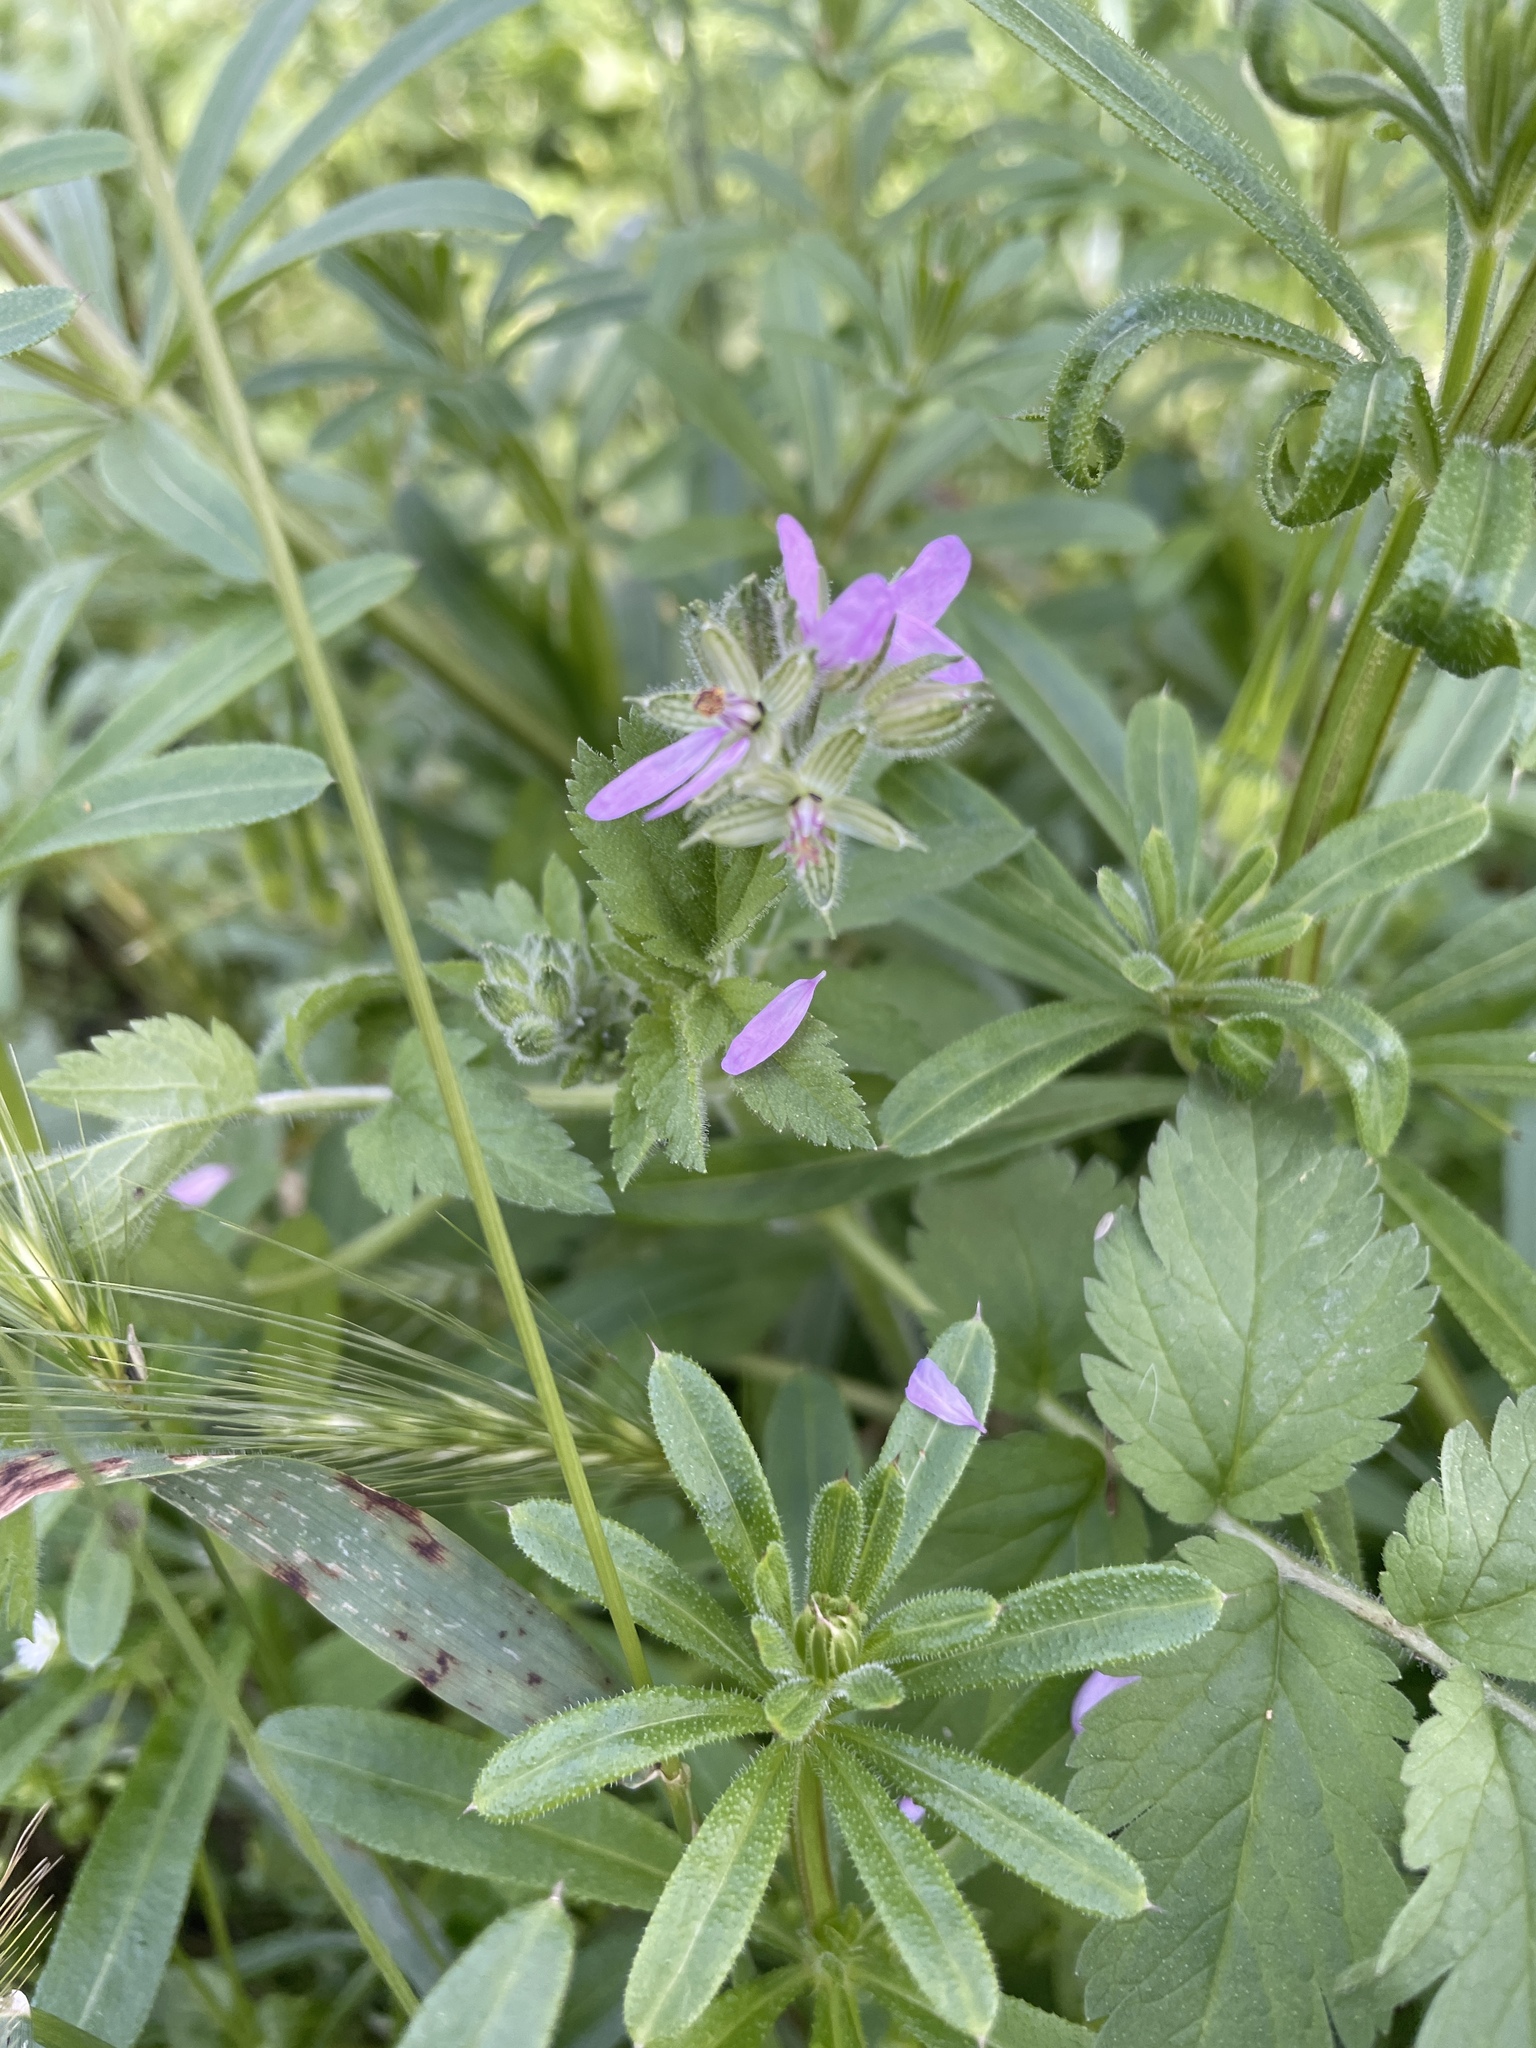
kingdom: Plantae
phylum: Tracheophyta
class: Magnoliopsida
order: Geraniales
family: Geraniaceae
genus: Erodium
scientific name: Erodium moschatum
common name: Musk stork's-bill
